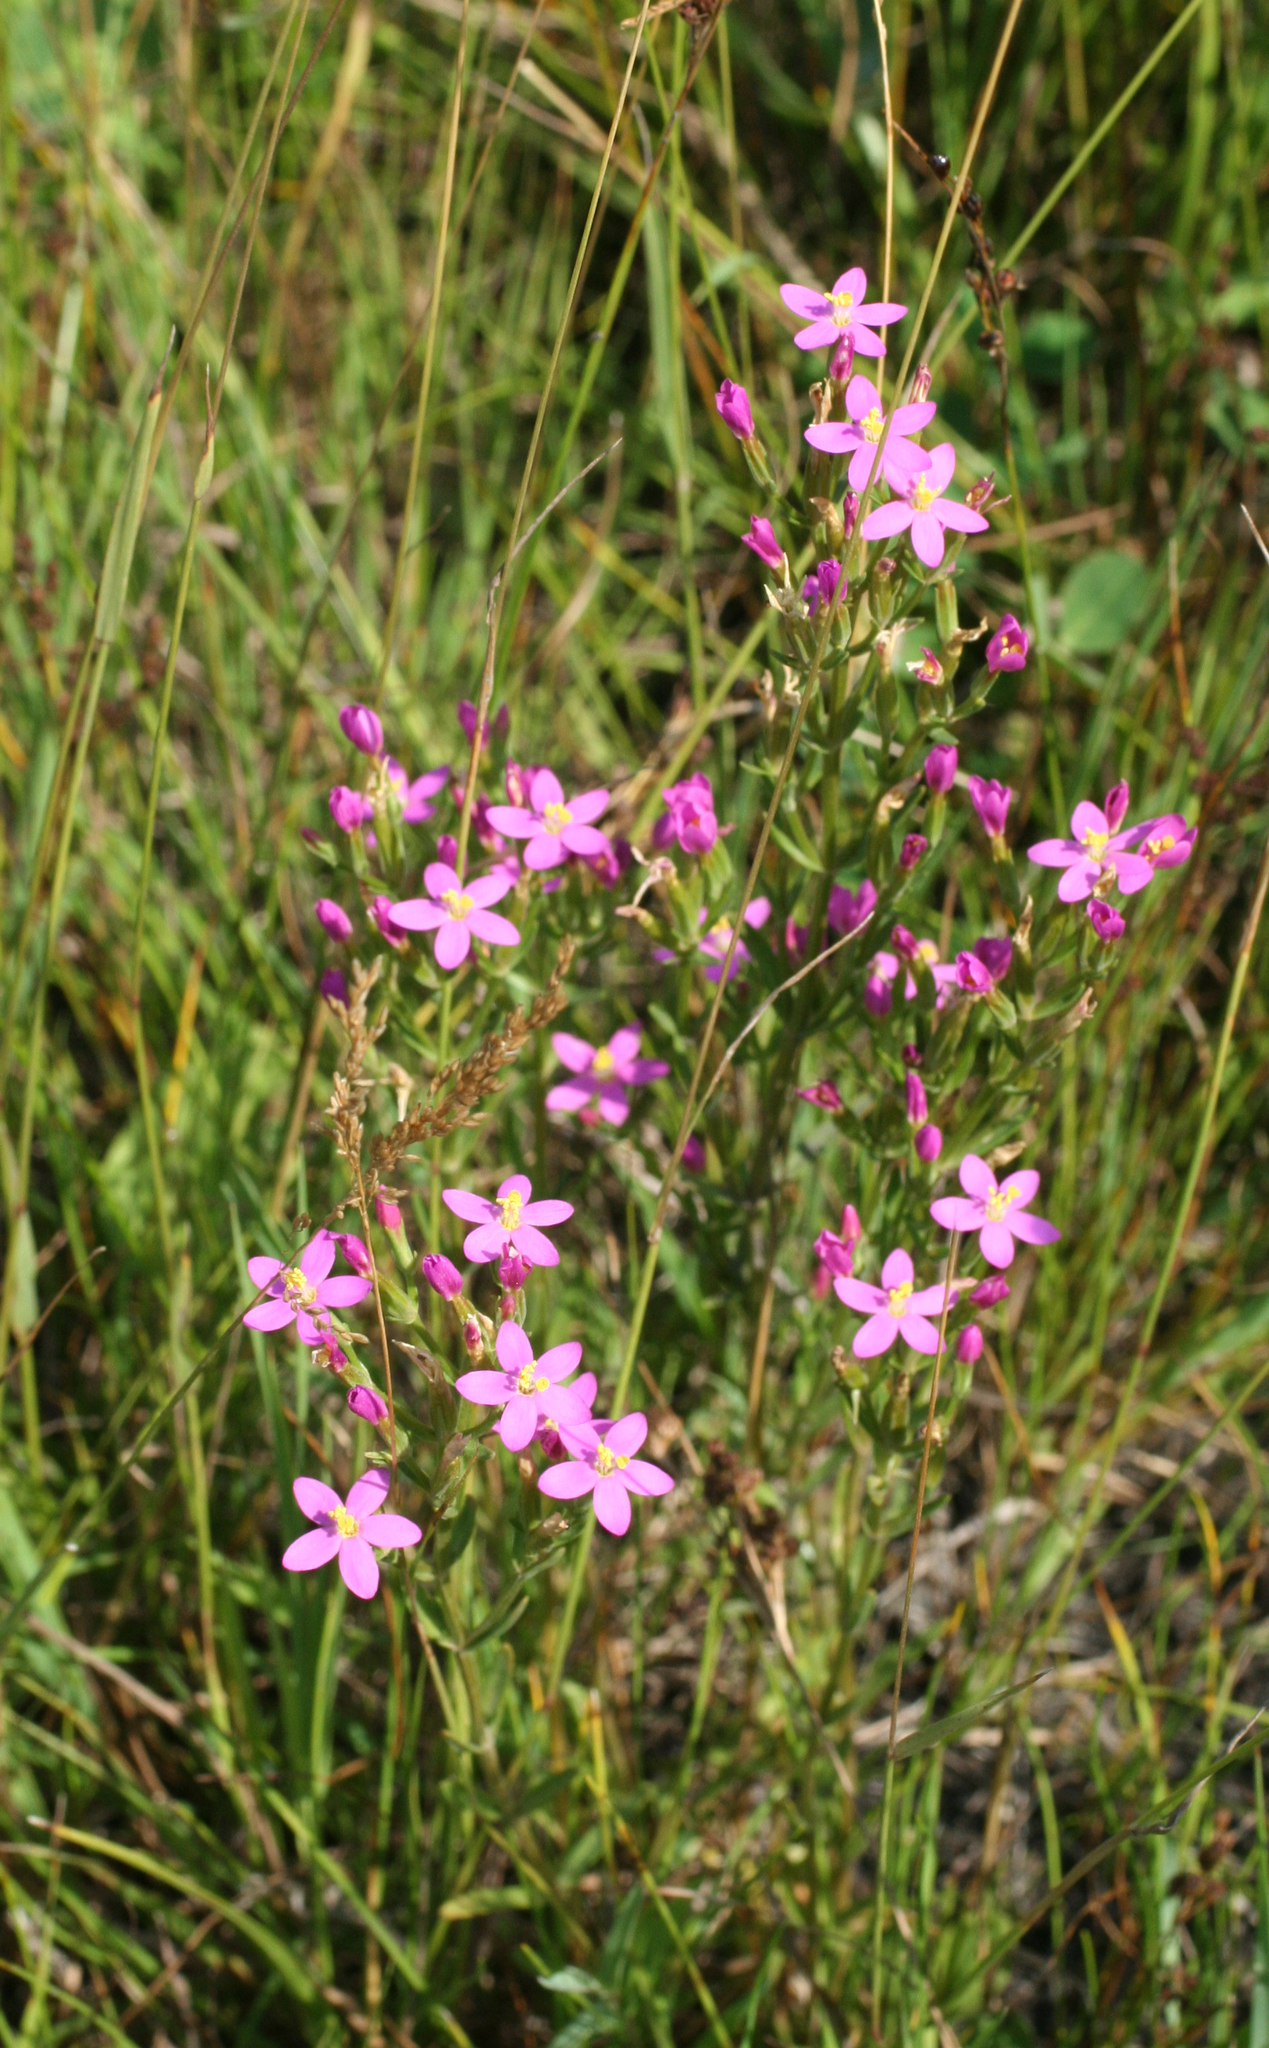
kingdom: Plantae
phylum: Tracheophyta
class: Magnoliopsida
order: Gentianales
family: Gentianaceae
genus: Centaurium
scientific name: Centaurium pulchellum
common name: Lesser centaury
